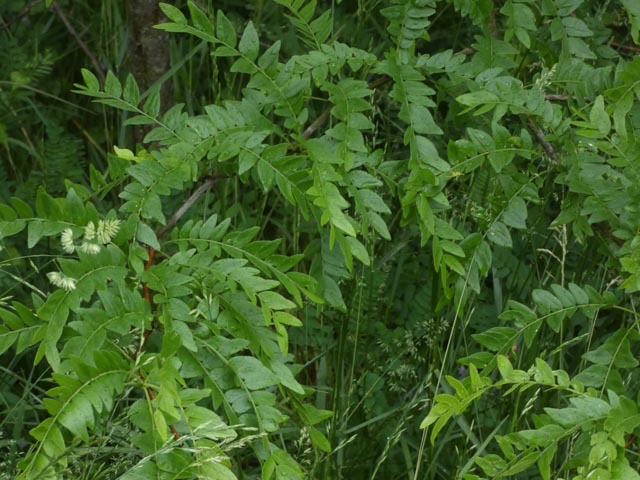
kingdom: Plantae
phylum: Tracheophyta
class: Magnoliopsida
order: Fabales
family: Fabaceae
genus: Gleditsia
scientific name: Gleditsia triacanthos
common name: Common honeylocust
